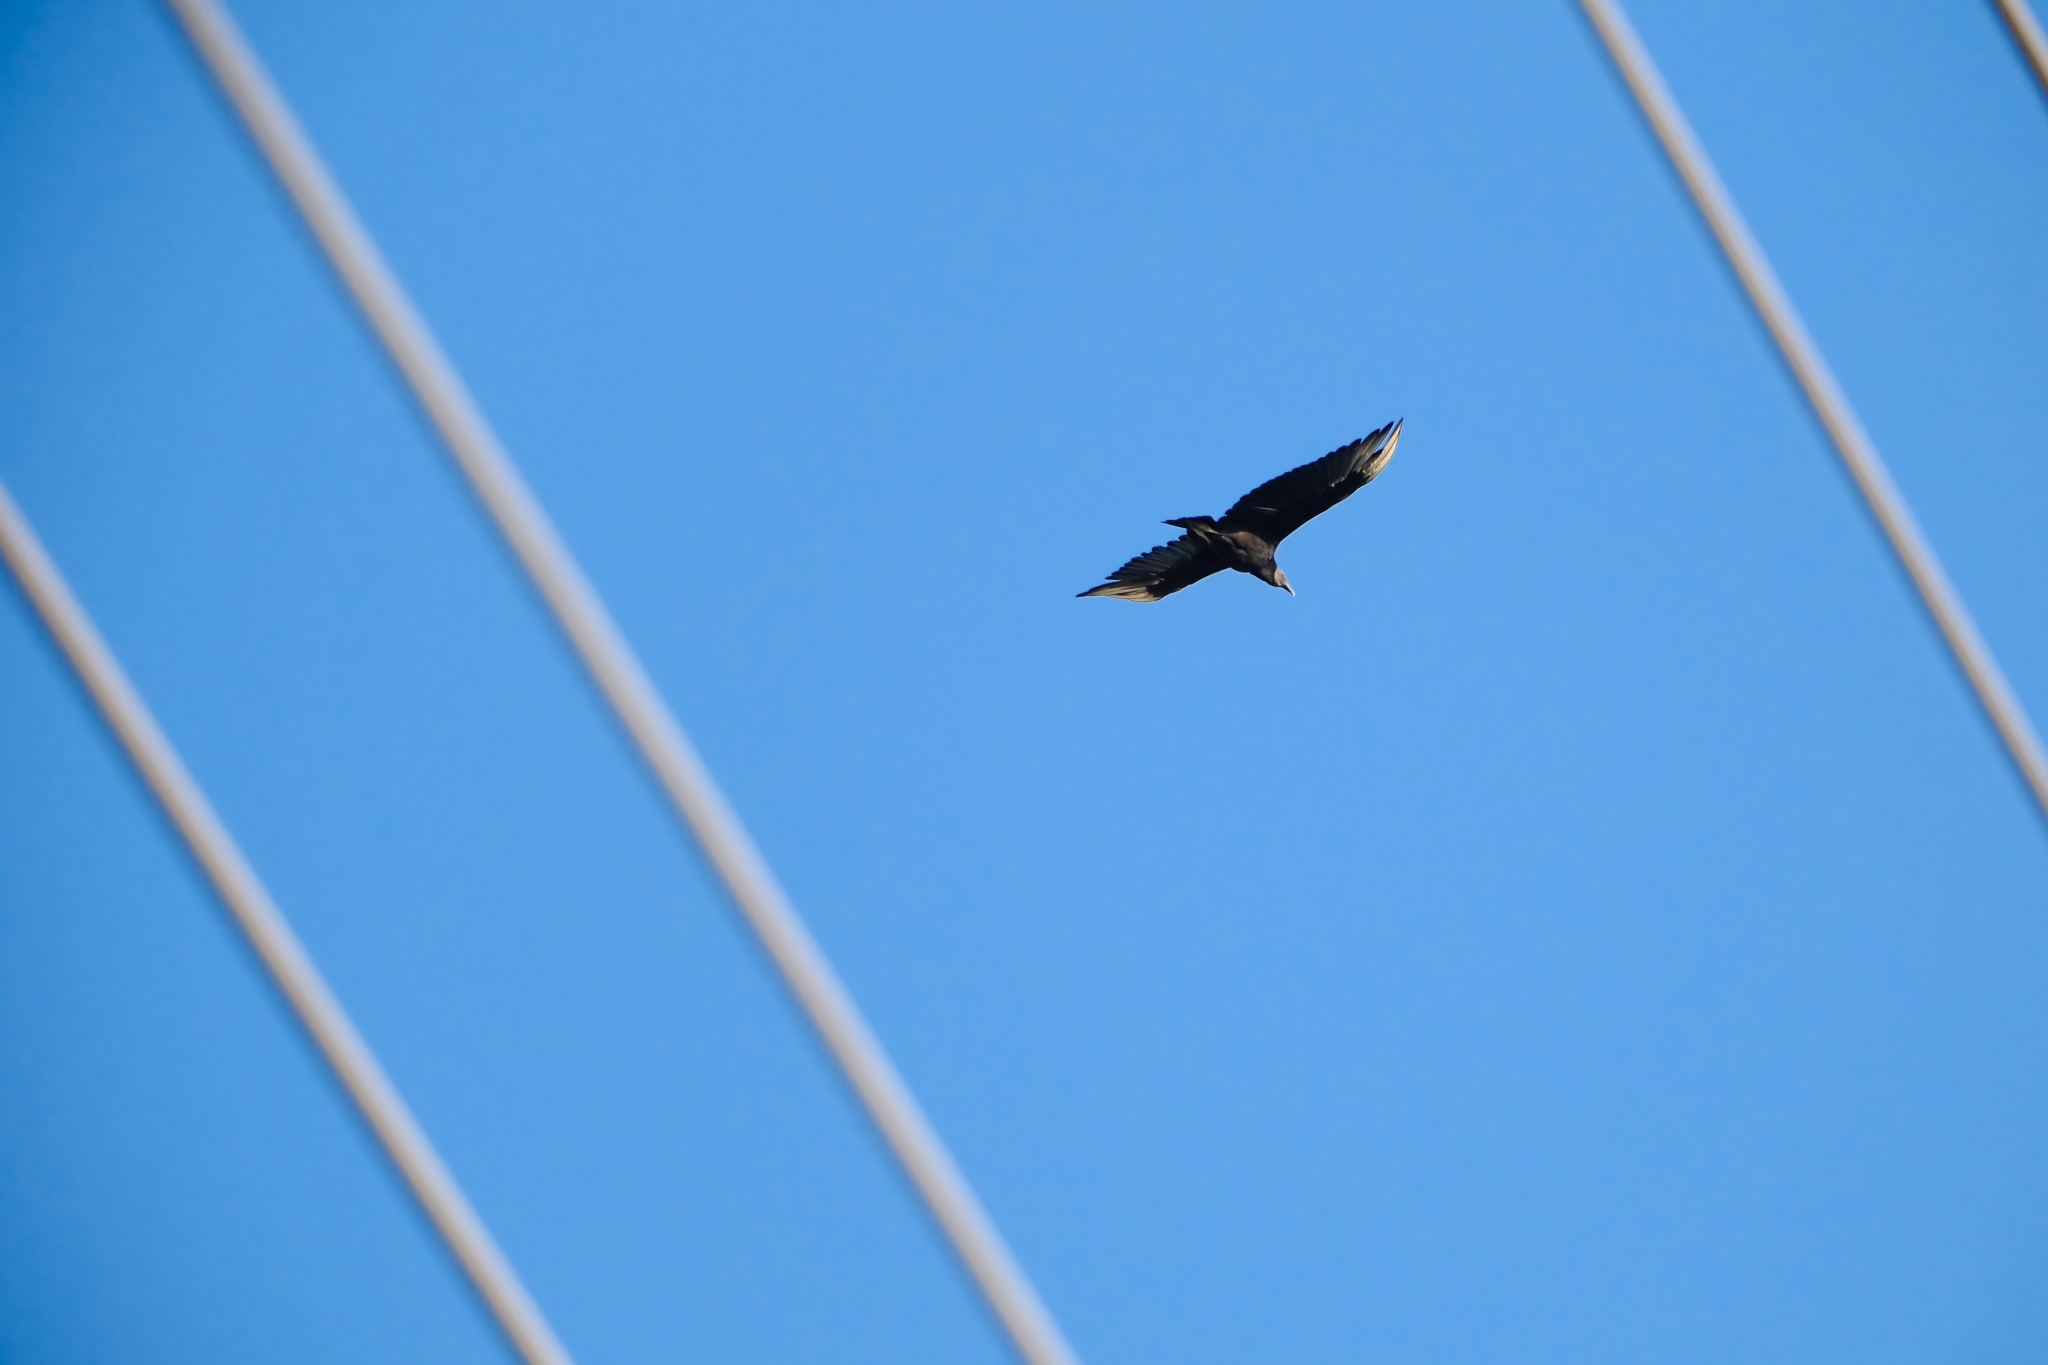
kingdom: Animalia
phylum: Chordata
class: Aves
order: Accipitriformes
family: Cathartidae
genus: Coragyps
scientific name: Coragyps atratus
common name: Black vulture
